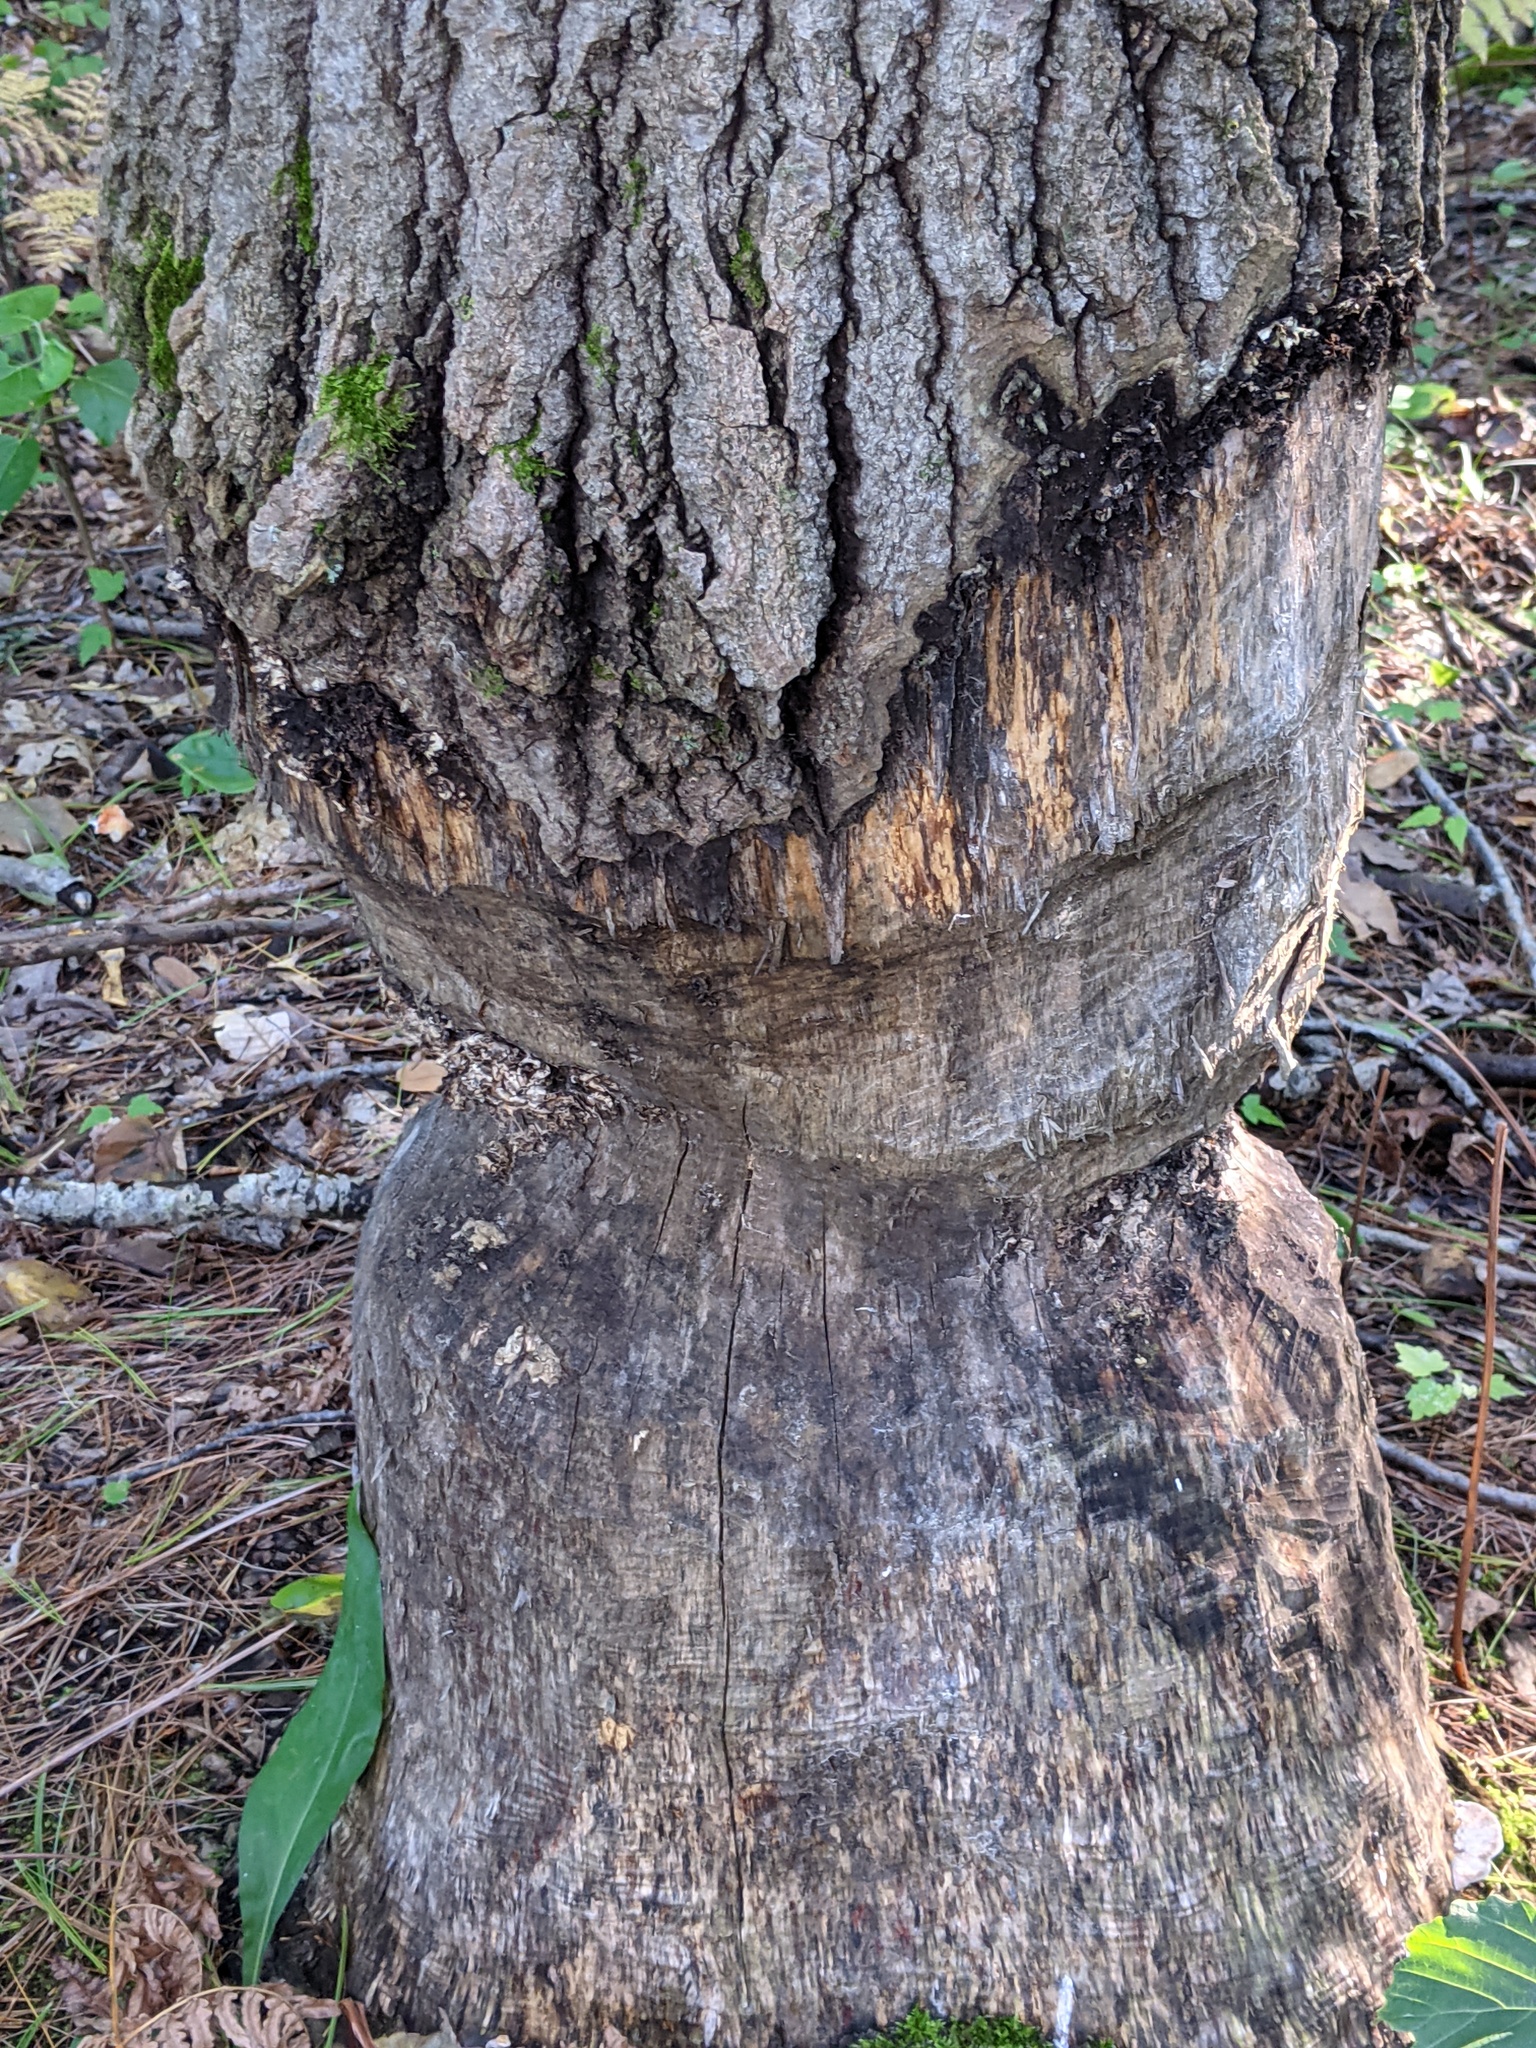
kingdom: Animalia
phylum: Chordata
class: Mammalia
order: Rodentia
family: Castoridae
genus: Castor
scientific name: Castor canadensis
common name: American beaver
